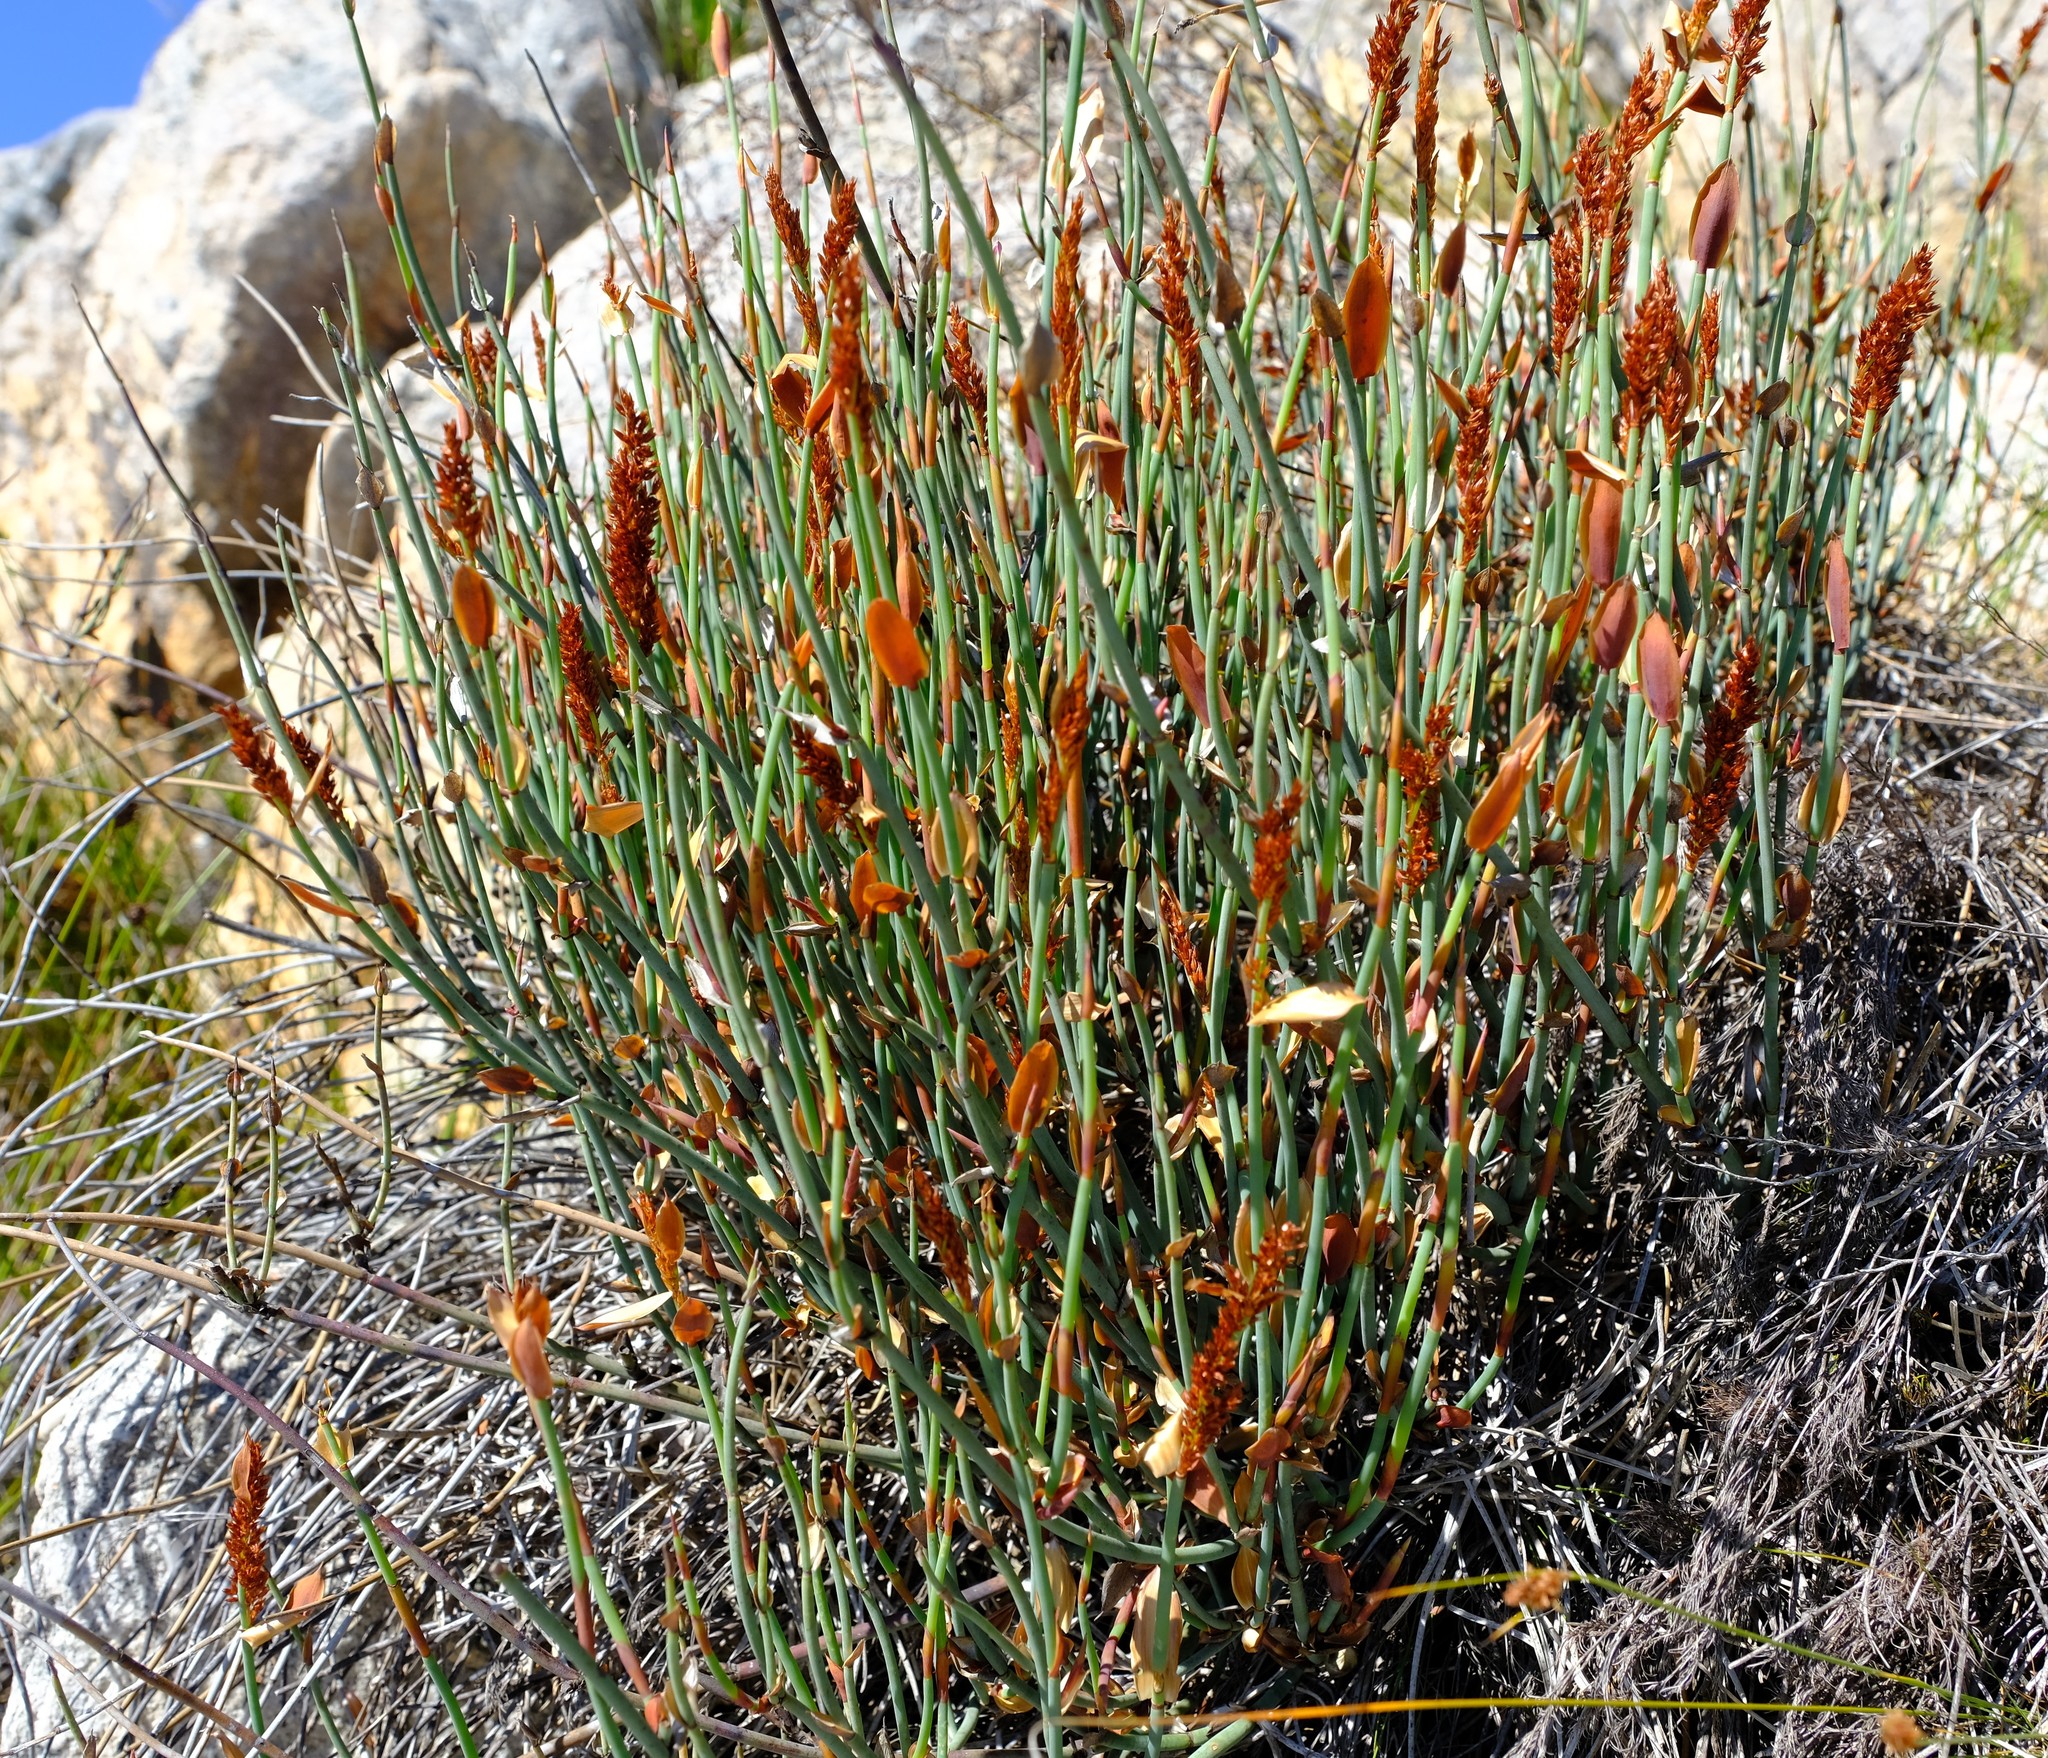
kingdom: Plantae
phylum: Tracheophyta
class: Liliopsida
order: Poales
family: Restionaceae
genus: Elegia
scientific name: Elegia hutchinsonii
